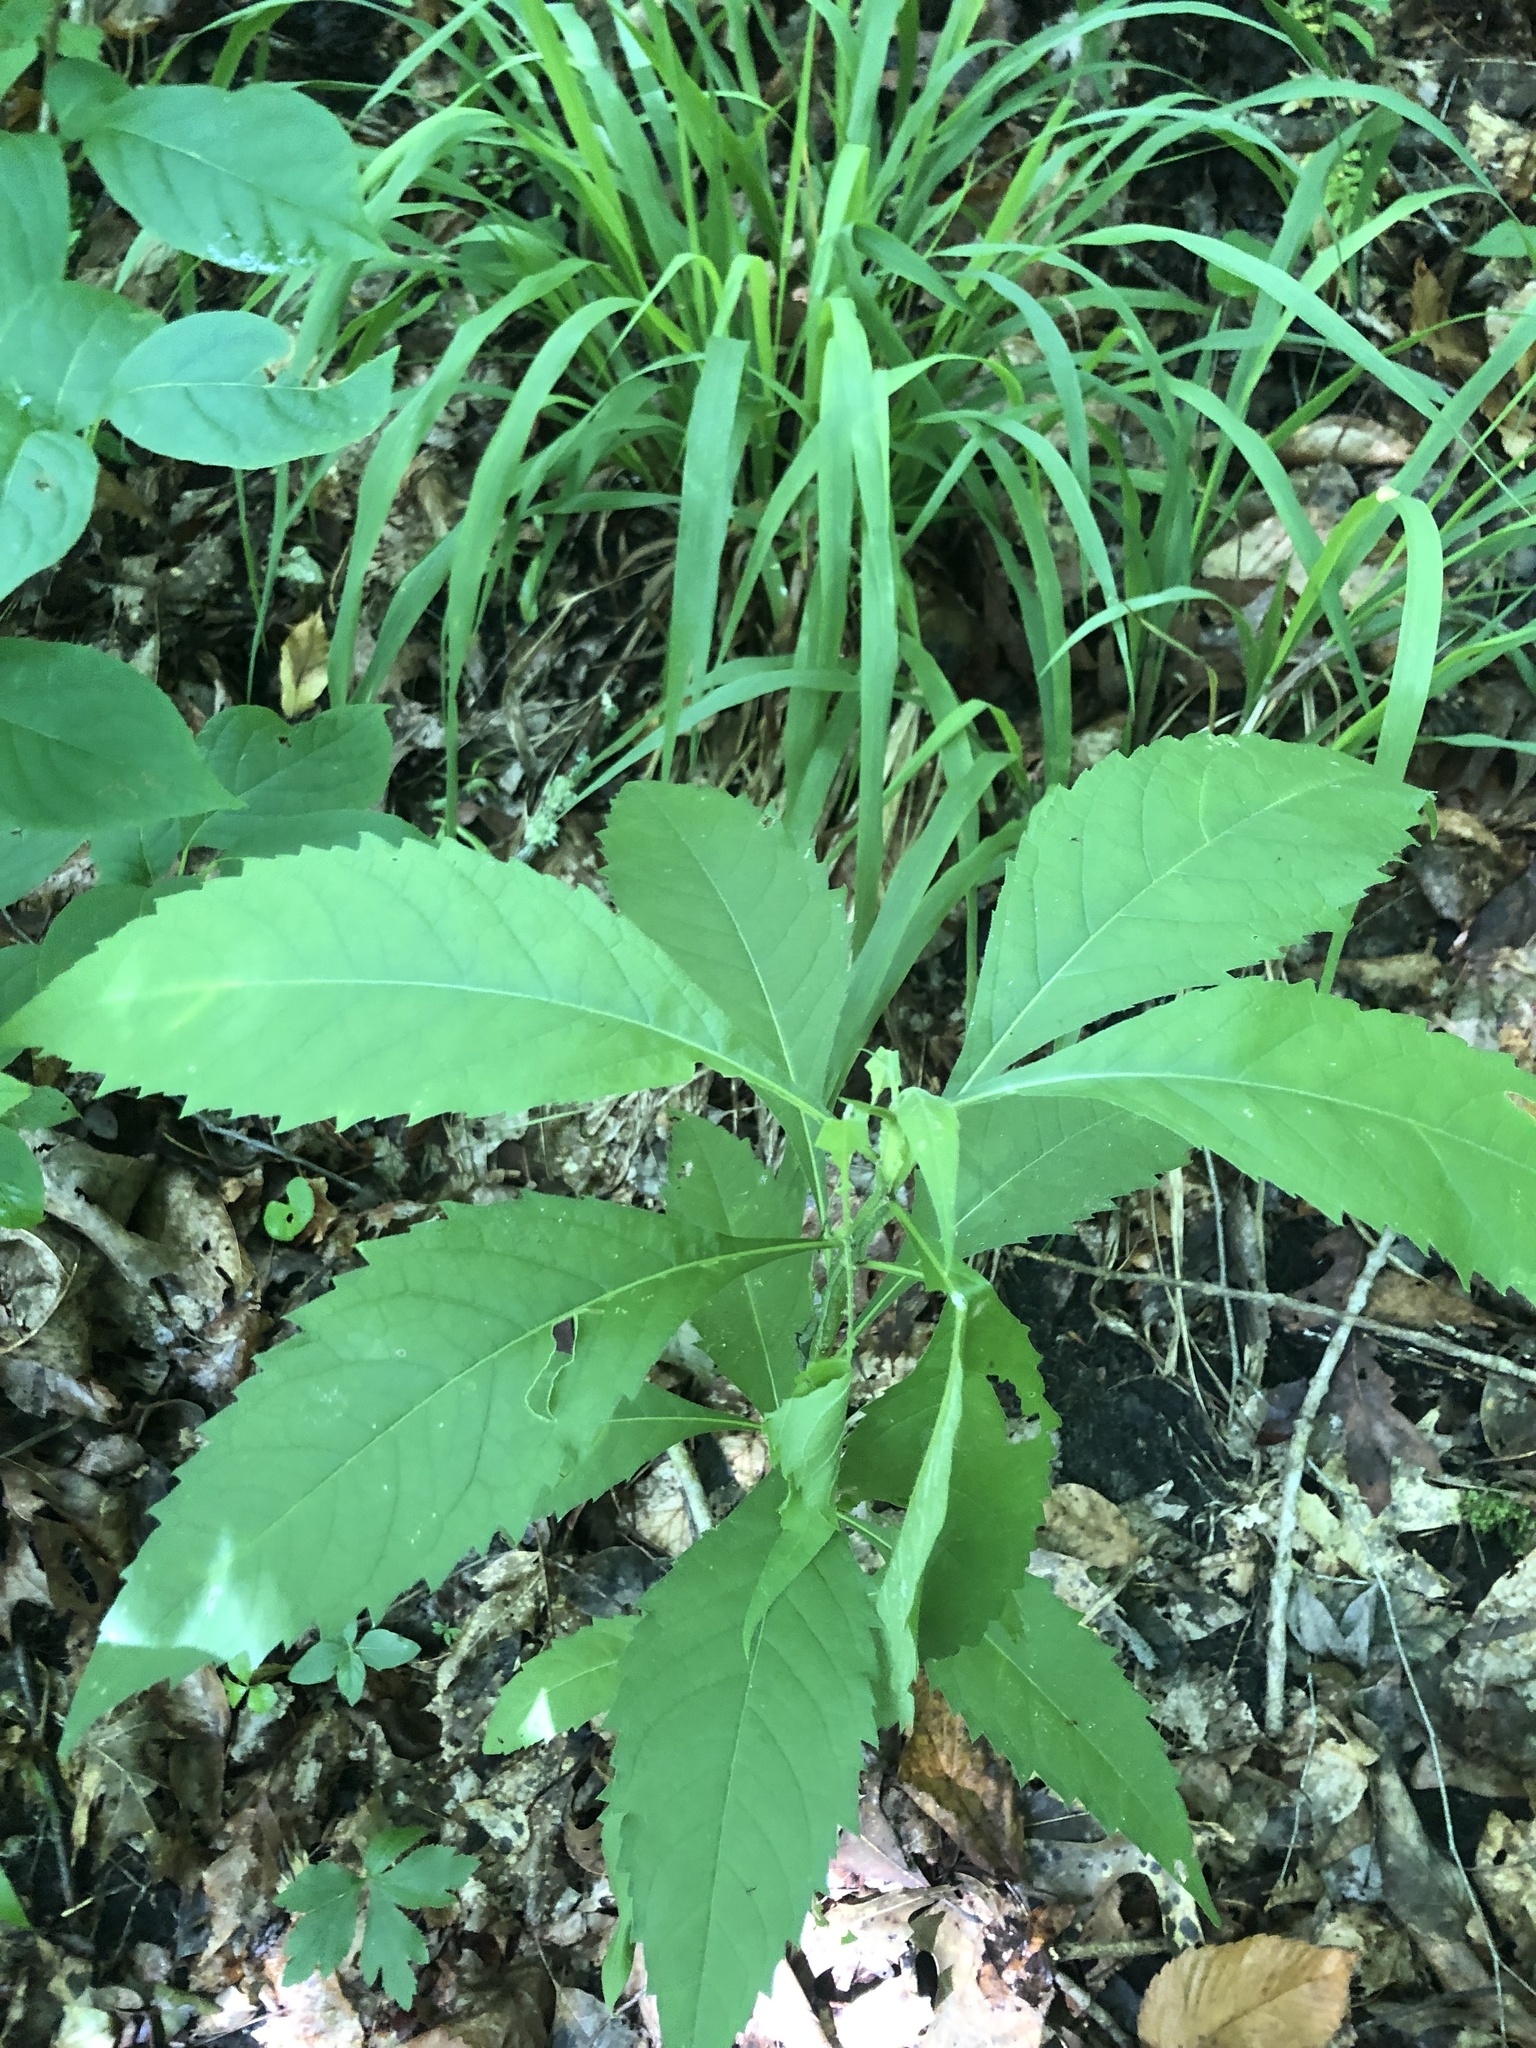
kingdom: Plantae
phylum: Tracheophyta
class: Magnoliopsida
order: Asterales
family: Asteraceae
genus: Verbesina
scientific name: Verbesina alternifolia
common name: Wingstem
